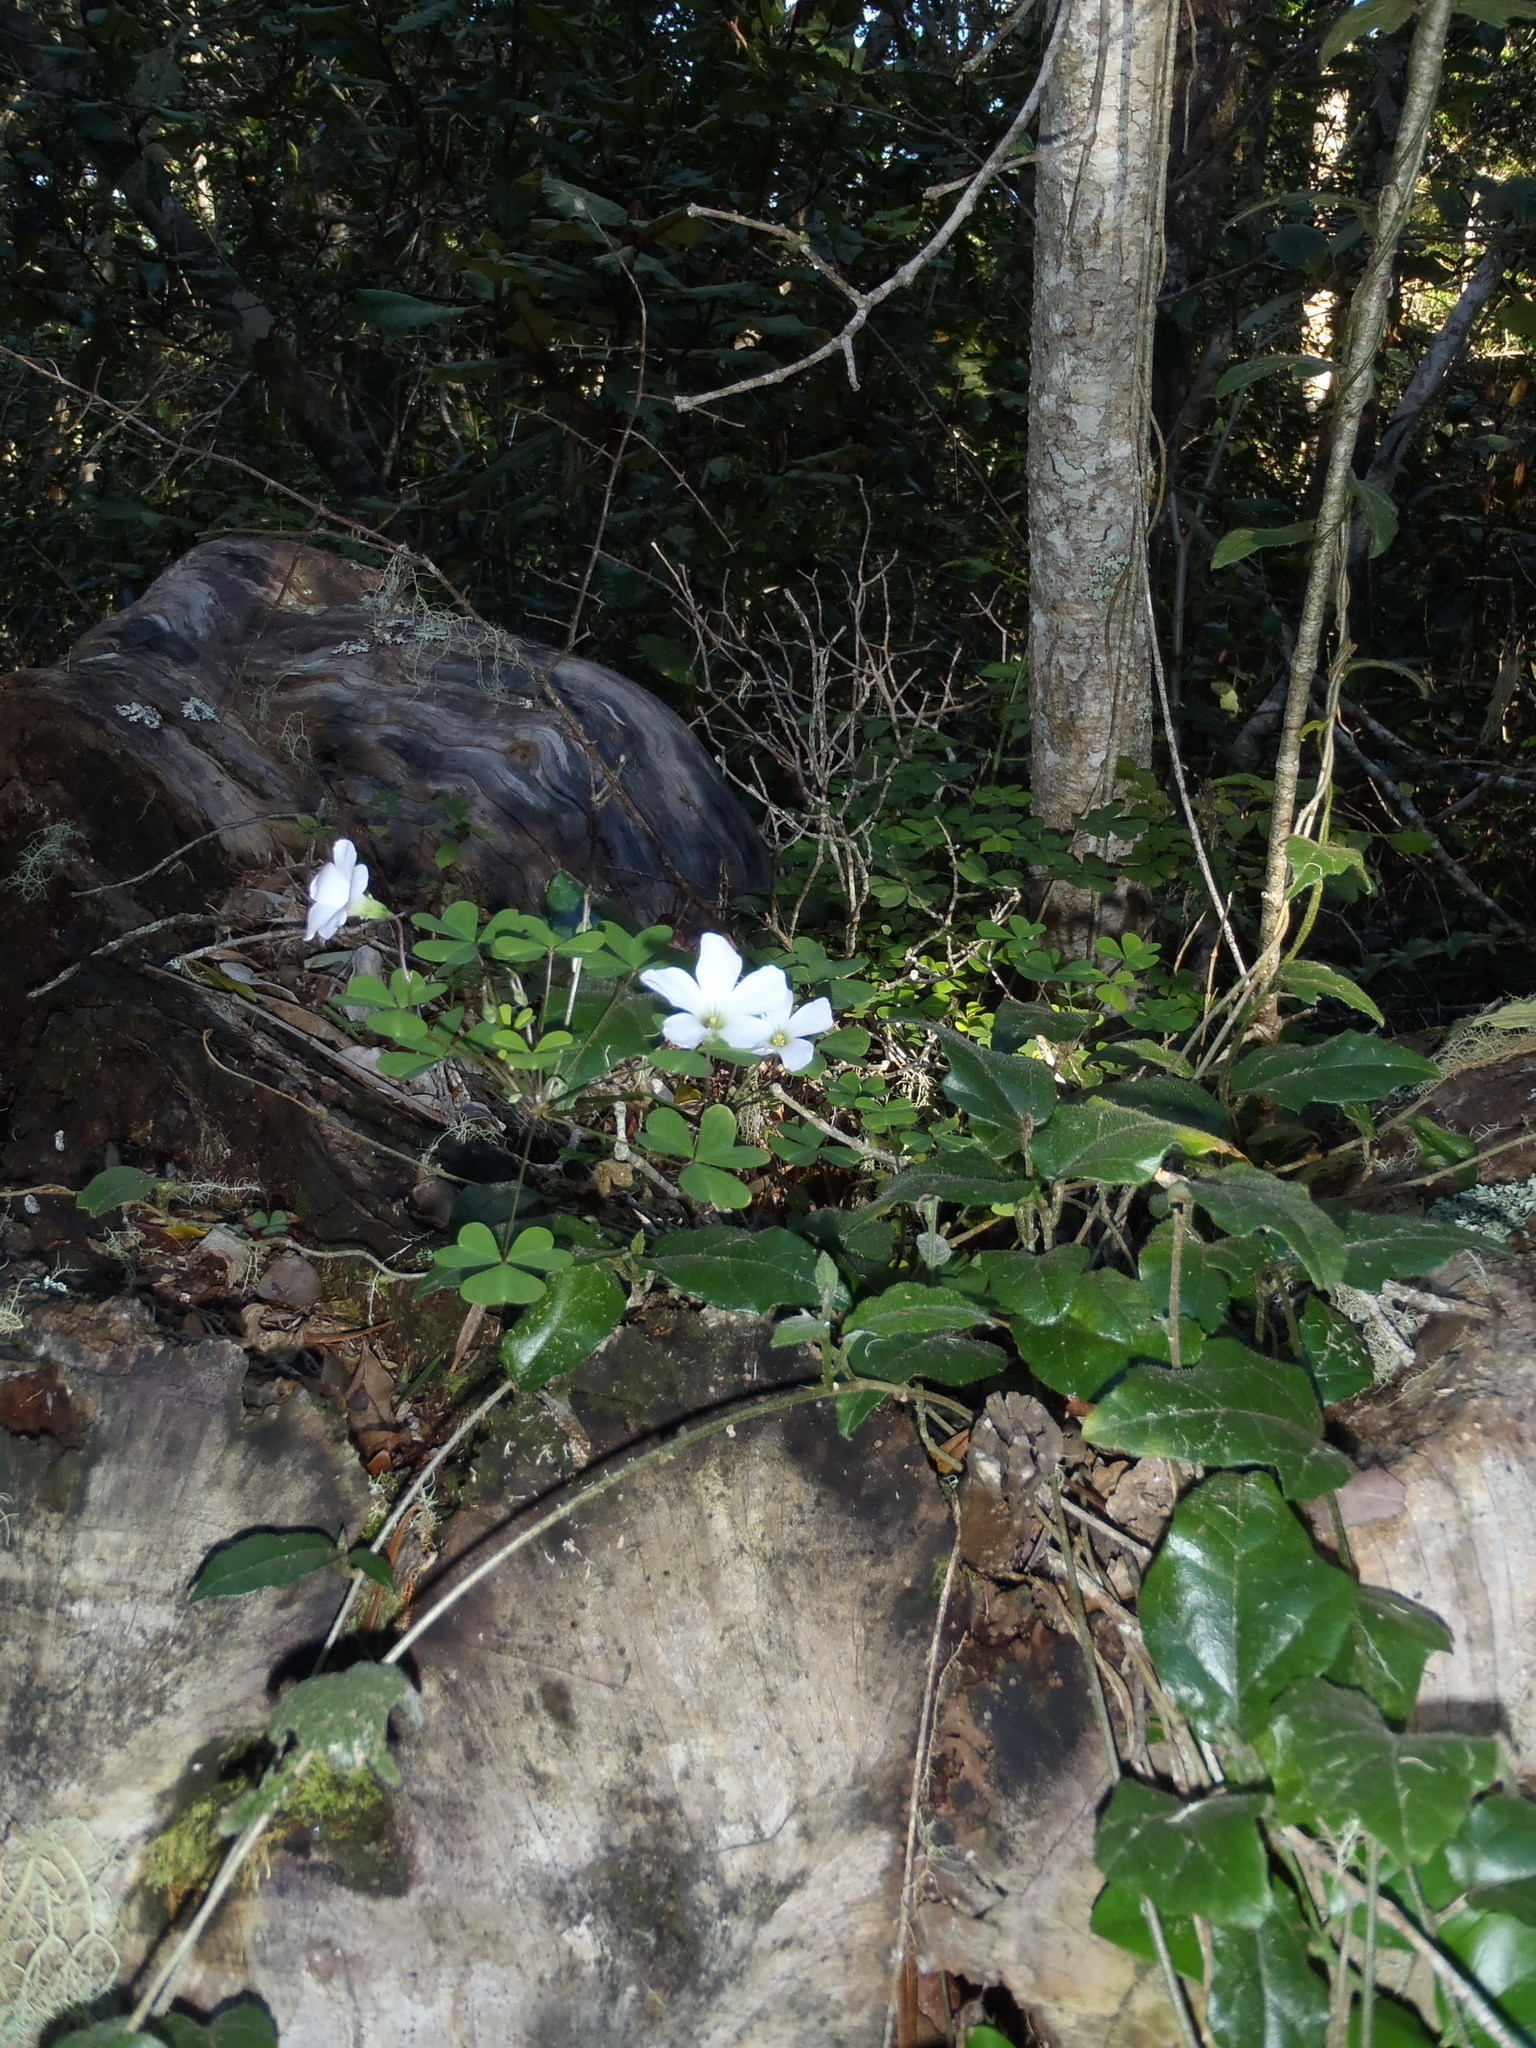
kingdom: Plantae
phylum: Tracheophyta
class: Magnoliopsida
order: Oxalidales
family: Oxalidaceae
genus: Oxalis
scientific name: Oxalis incarnata
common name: Pale pink-sorrel
